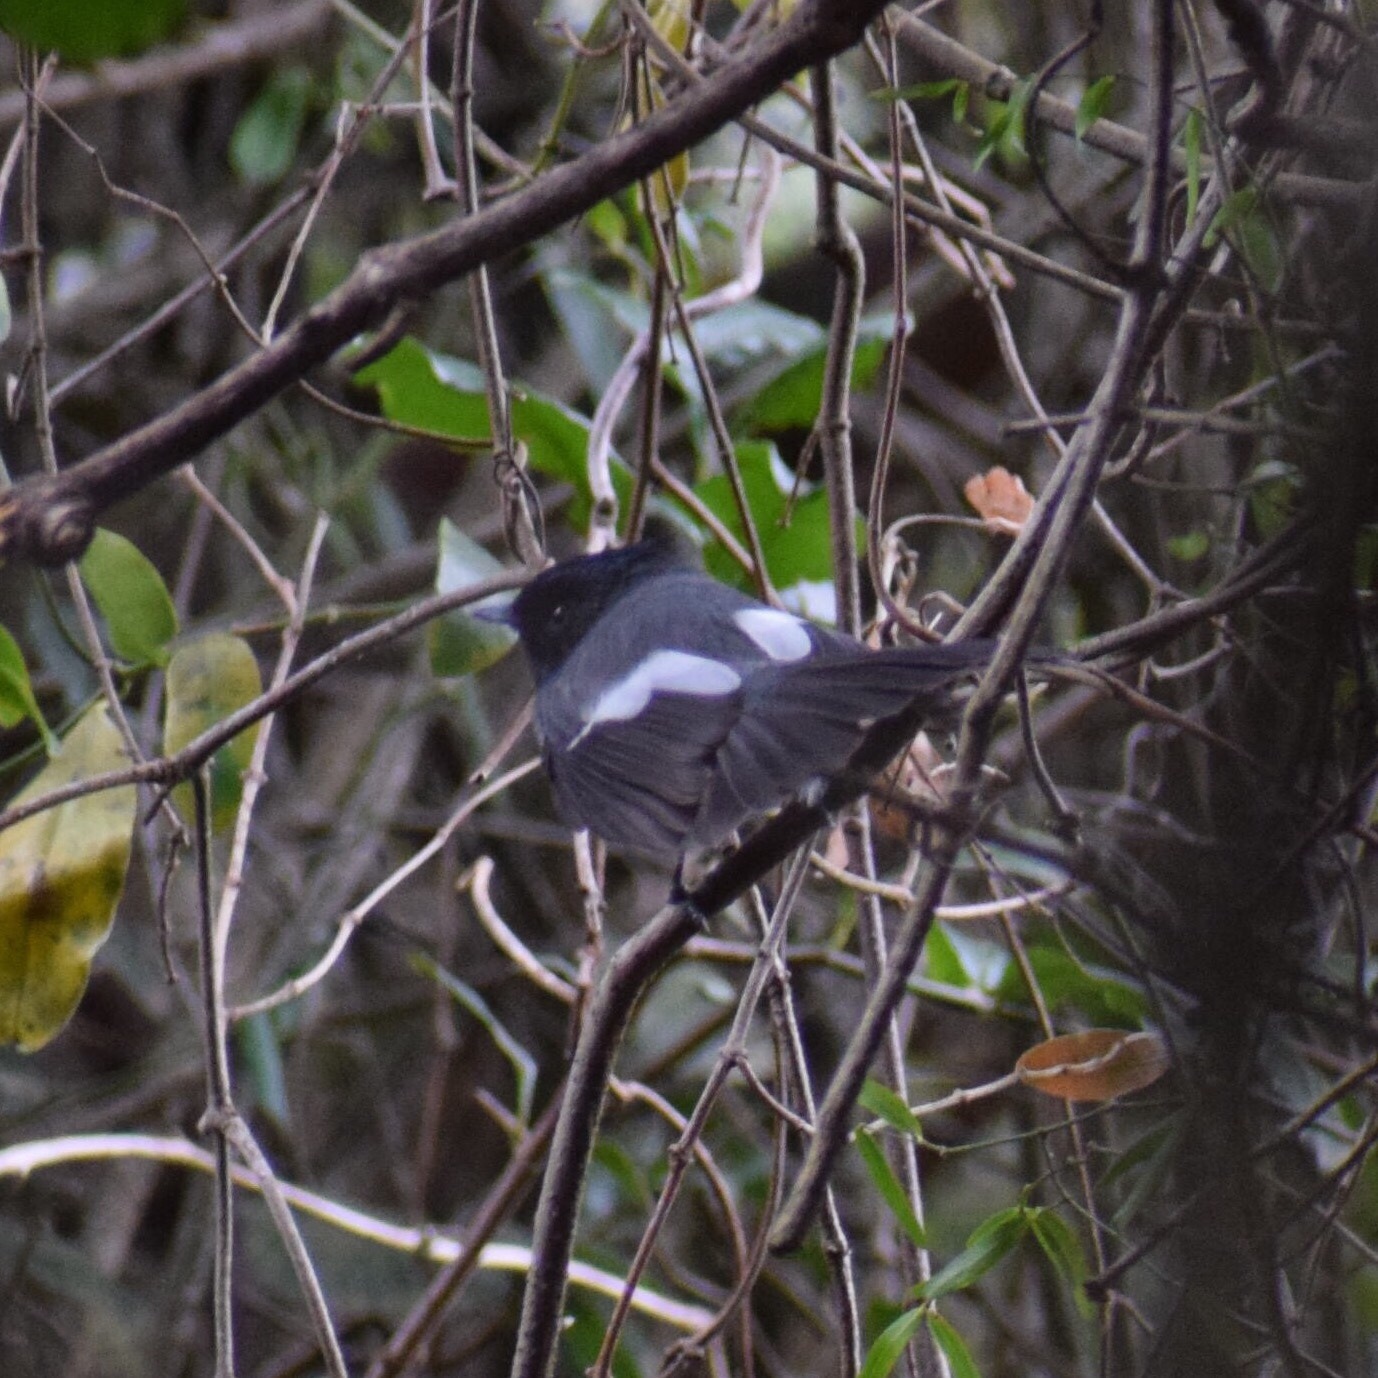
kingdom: Animalia
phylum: Chordata
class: Aves
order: Passeriformes
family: Monarchidae
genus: Trochocercus
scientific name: Trochocercus cyanomelas
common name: Blue-mantled crested flycatcher
